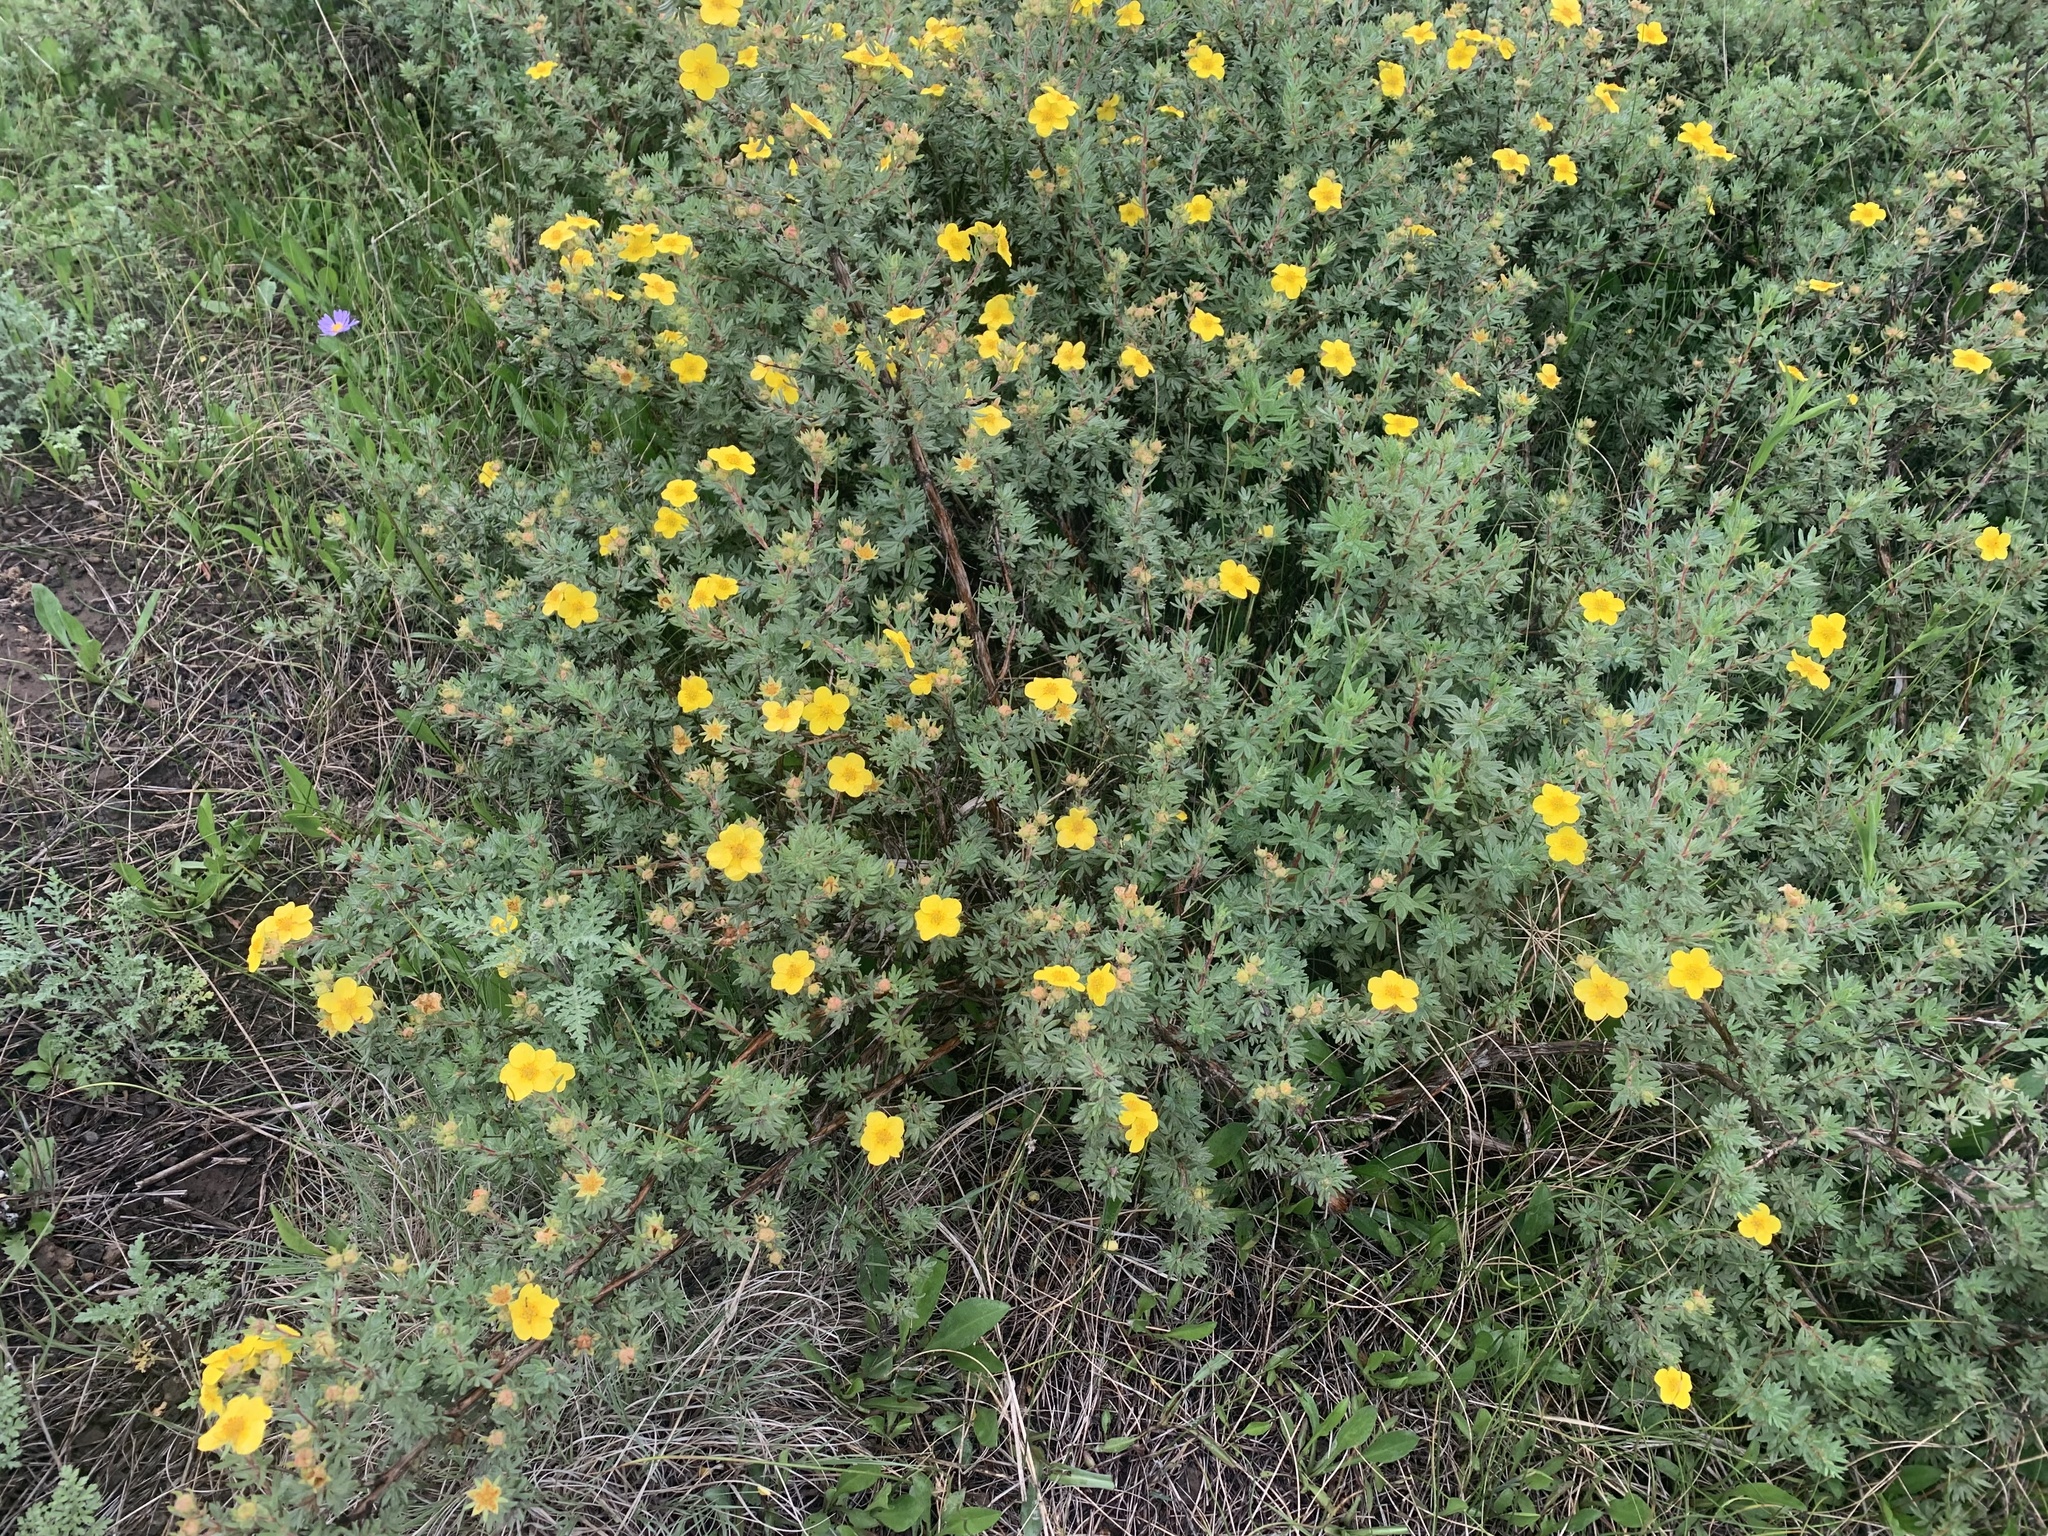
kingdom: Plantae
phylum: Tracheophyta
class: Magnoliopsida
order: Rosales
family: Rosaceae
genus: Dasiphora
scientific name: Dasiphora fruticosa
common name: Shrubby cinquefoil
